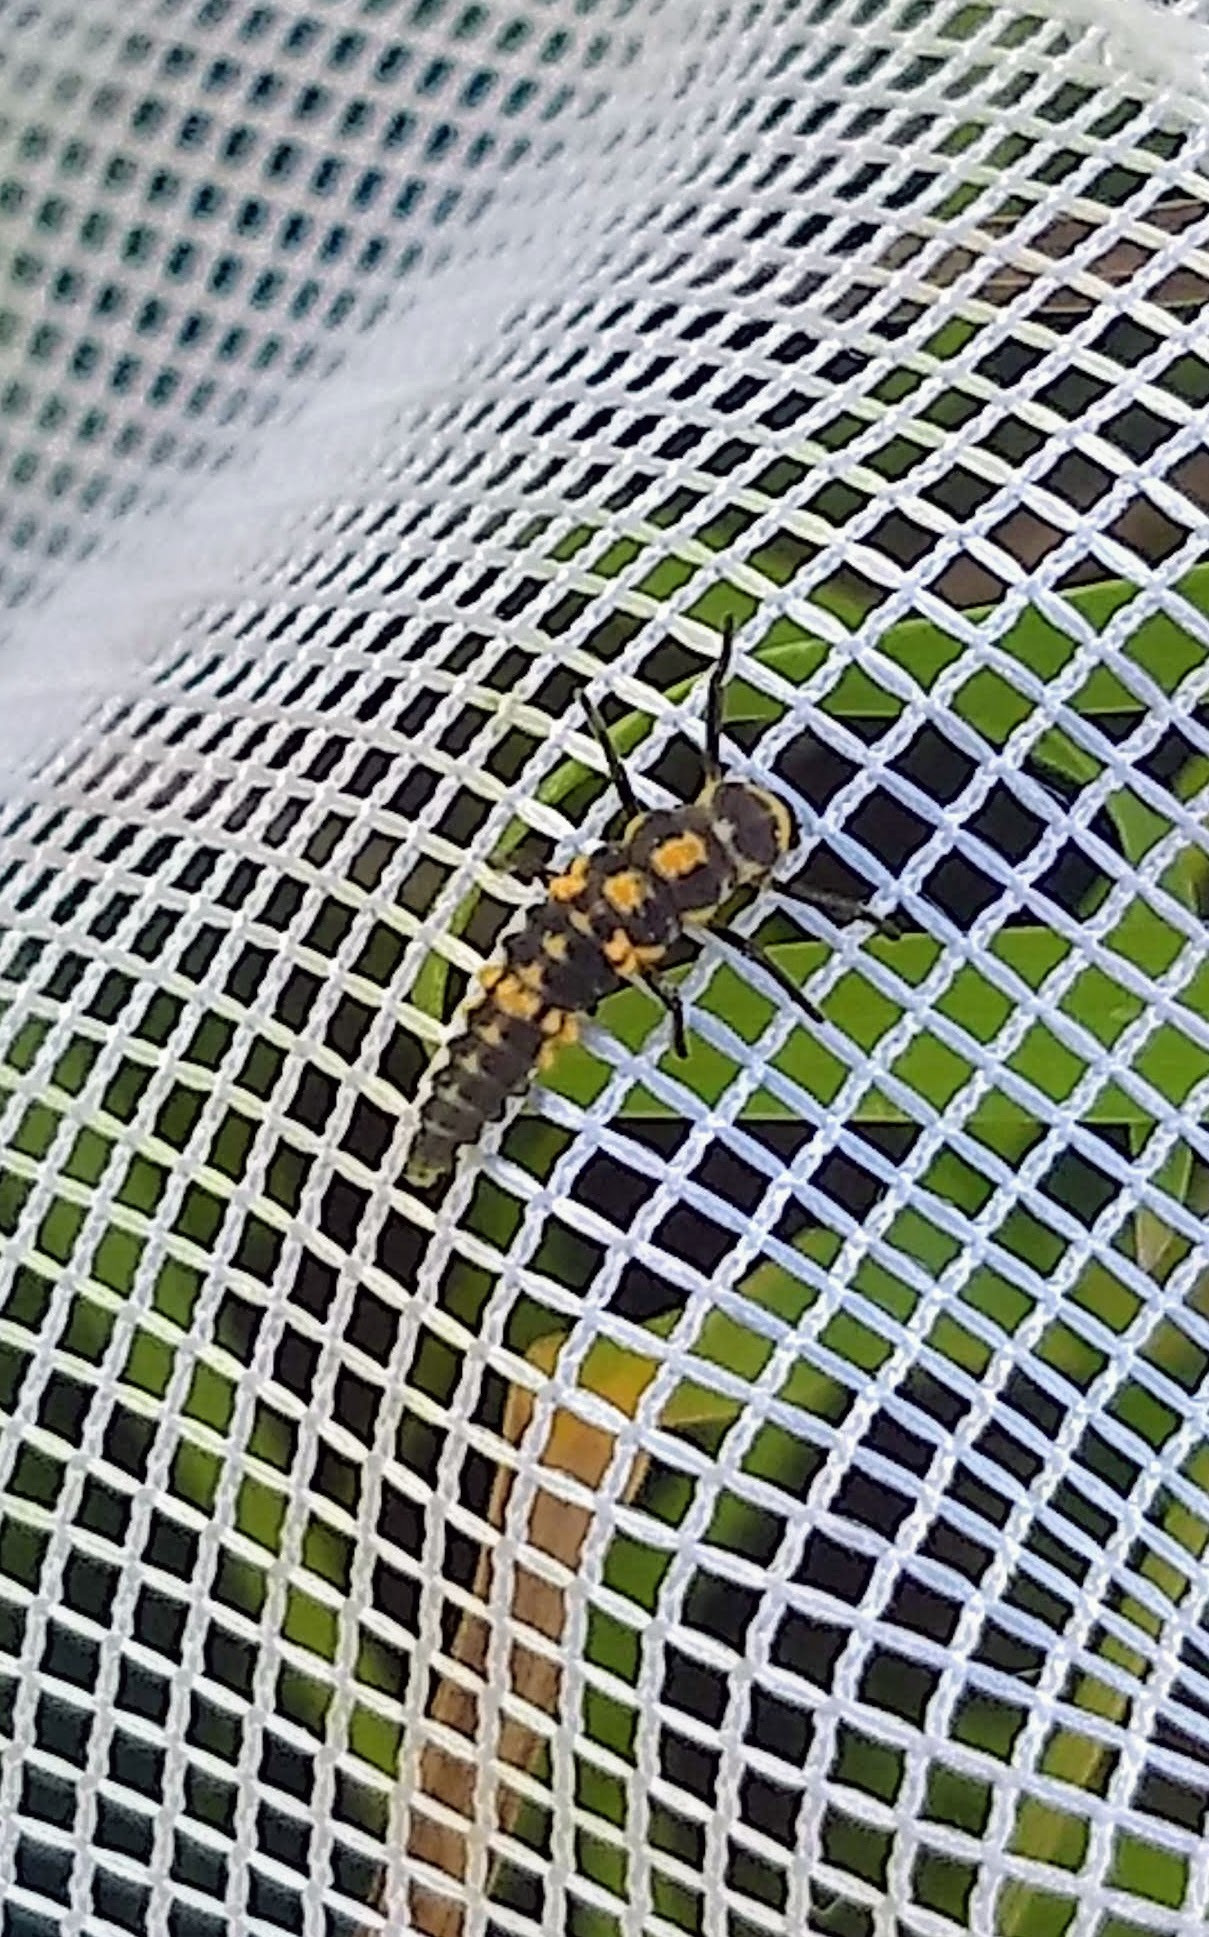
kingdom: Animalia
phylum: Arthropoda
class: Insecta
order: Coleoptera
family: Coccinellidae
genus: Cycloneda
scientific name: Cycloneda munda
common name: Polished lady beetle
